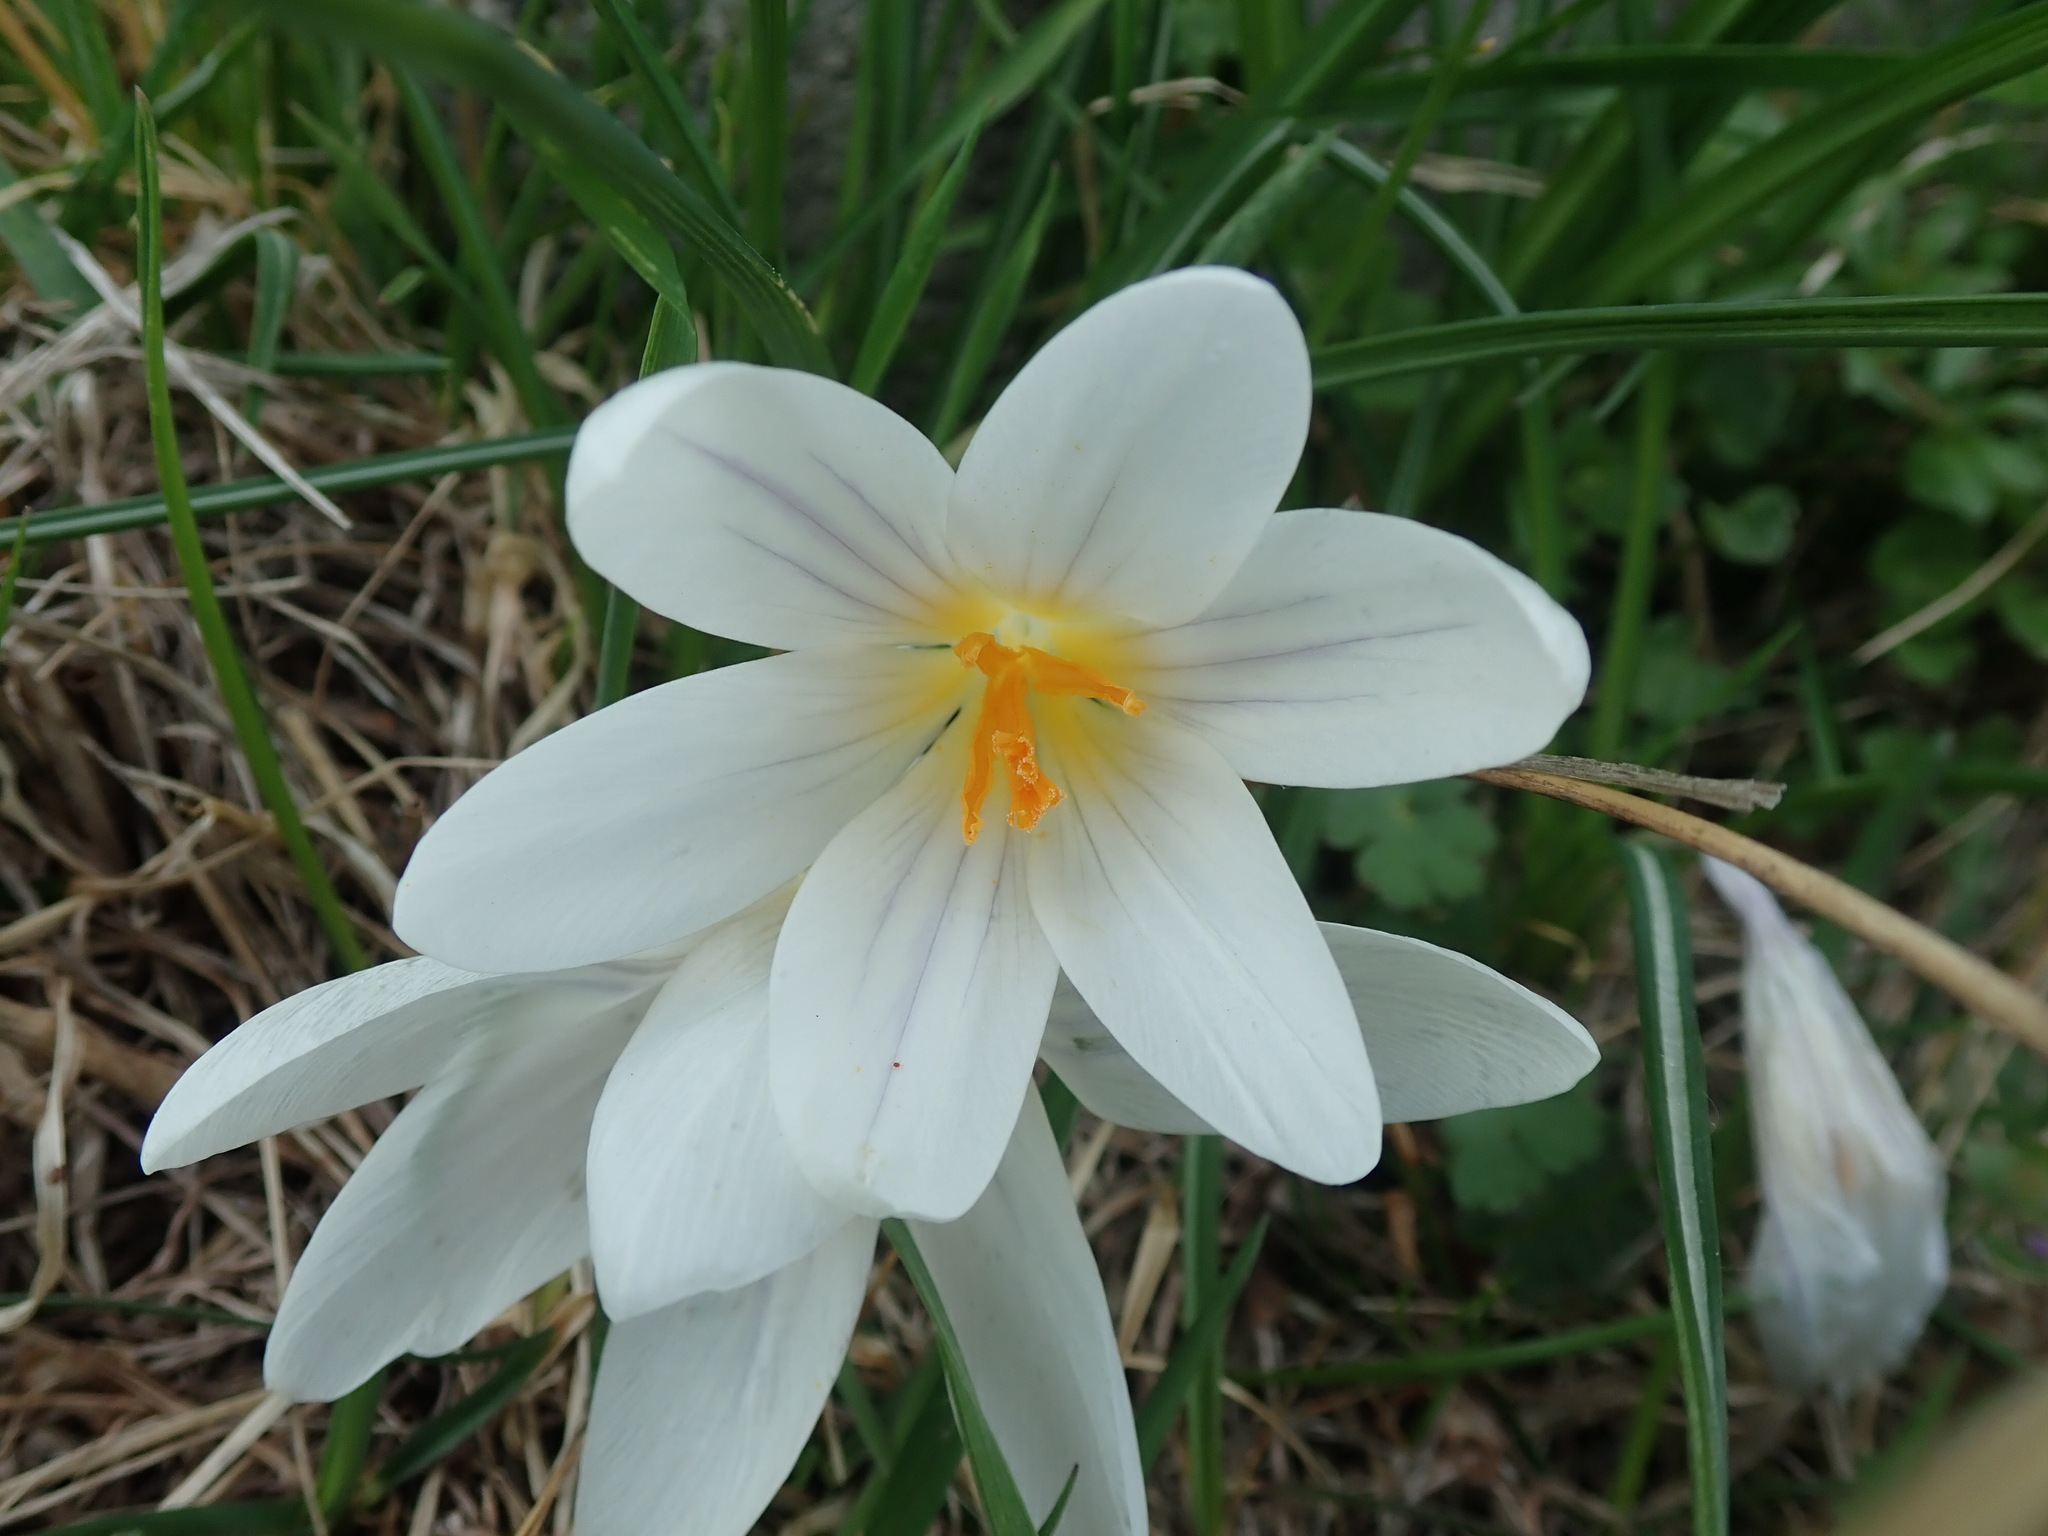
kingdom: Plantae
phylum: Tracheophyta
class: Liliopsida
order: Asparagales
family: Iridaceae
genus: Crocus
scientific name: Crocus vernus
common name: Spring crocus
